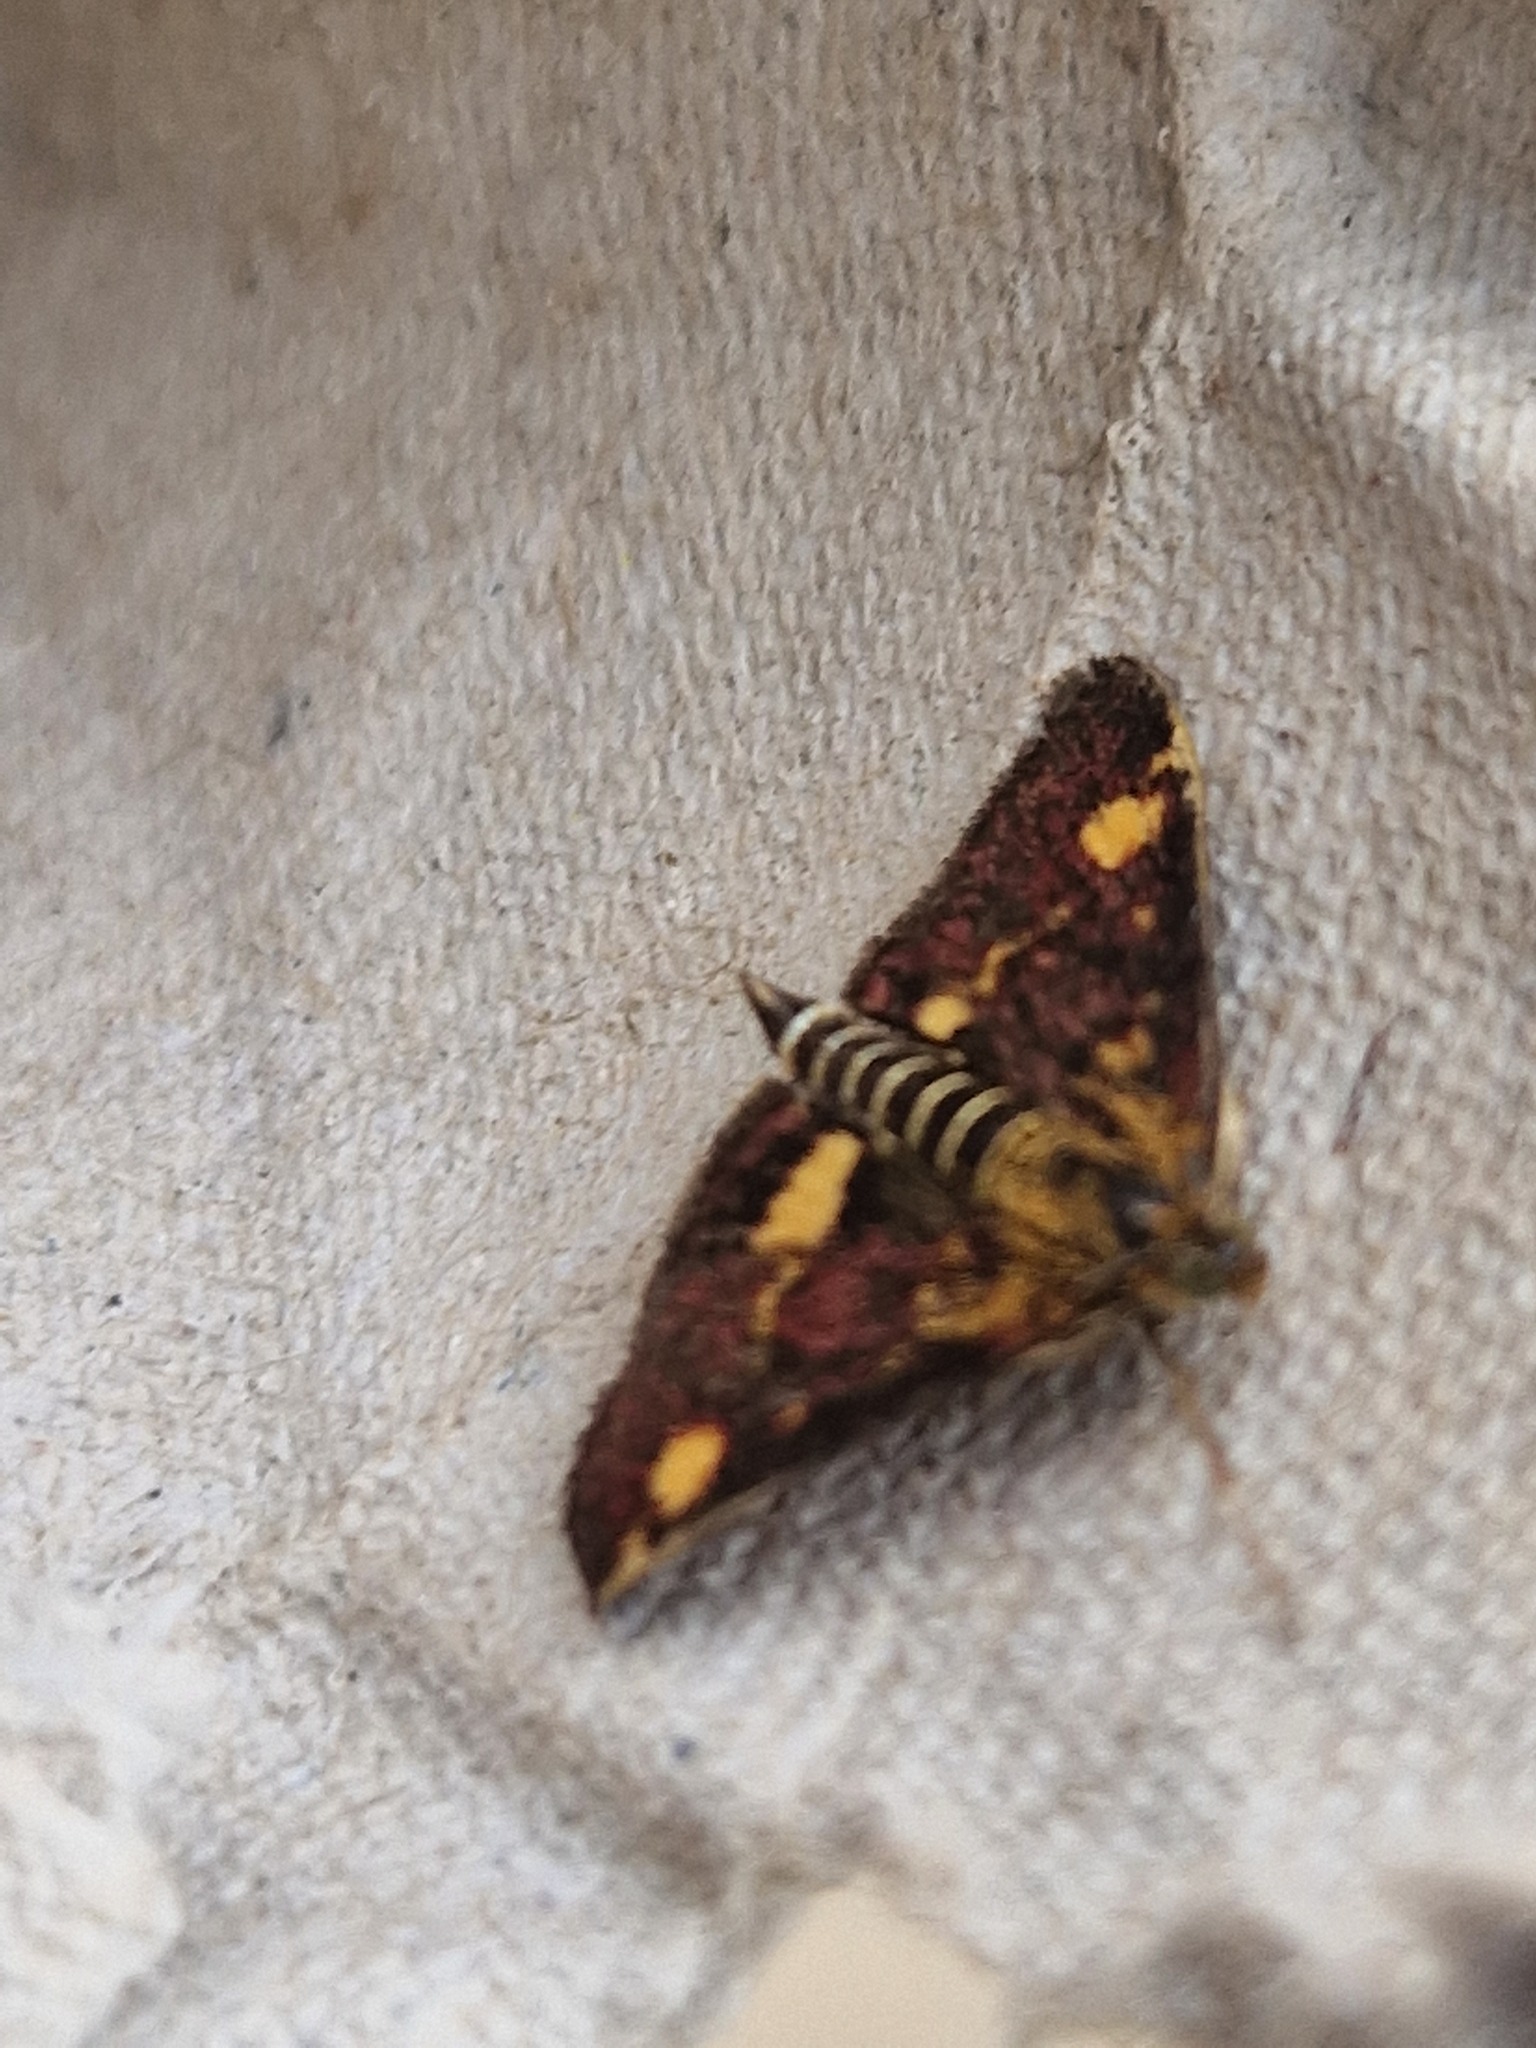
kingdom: Animalia
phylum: Arthropoda
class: Insecta
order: Lepidoptera
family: Crambidae
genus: Pyrausta
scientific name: Pyrausta aurata
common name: Small purple & gold
